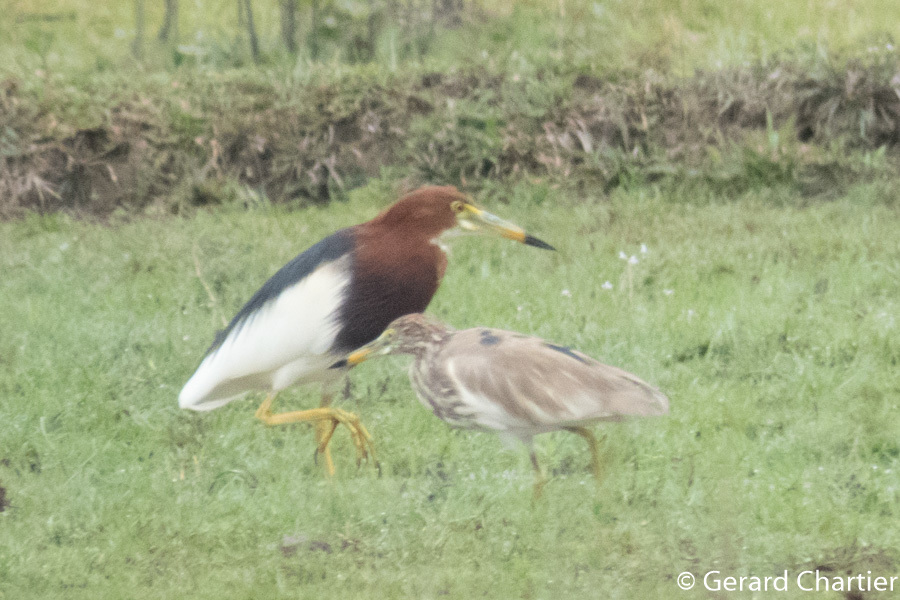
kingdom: Animalia
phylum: Chordata
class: Aves
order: Pelecaniformes
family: Ardeidae
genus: Ardeola
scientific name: Ardeola bacchus
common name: Chinese pond heron
